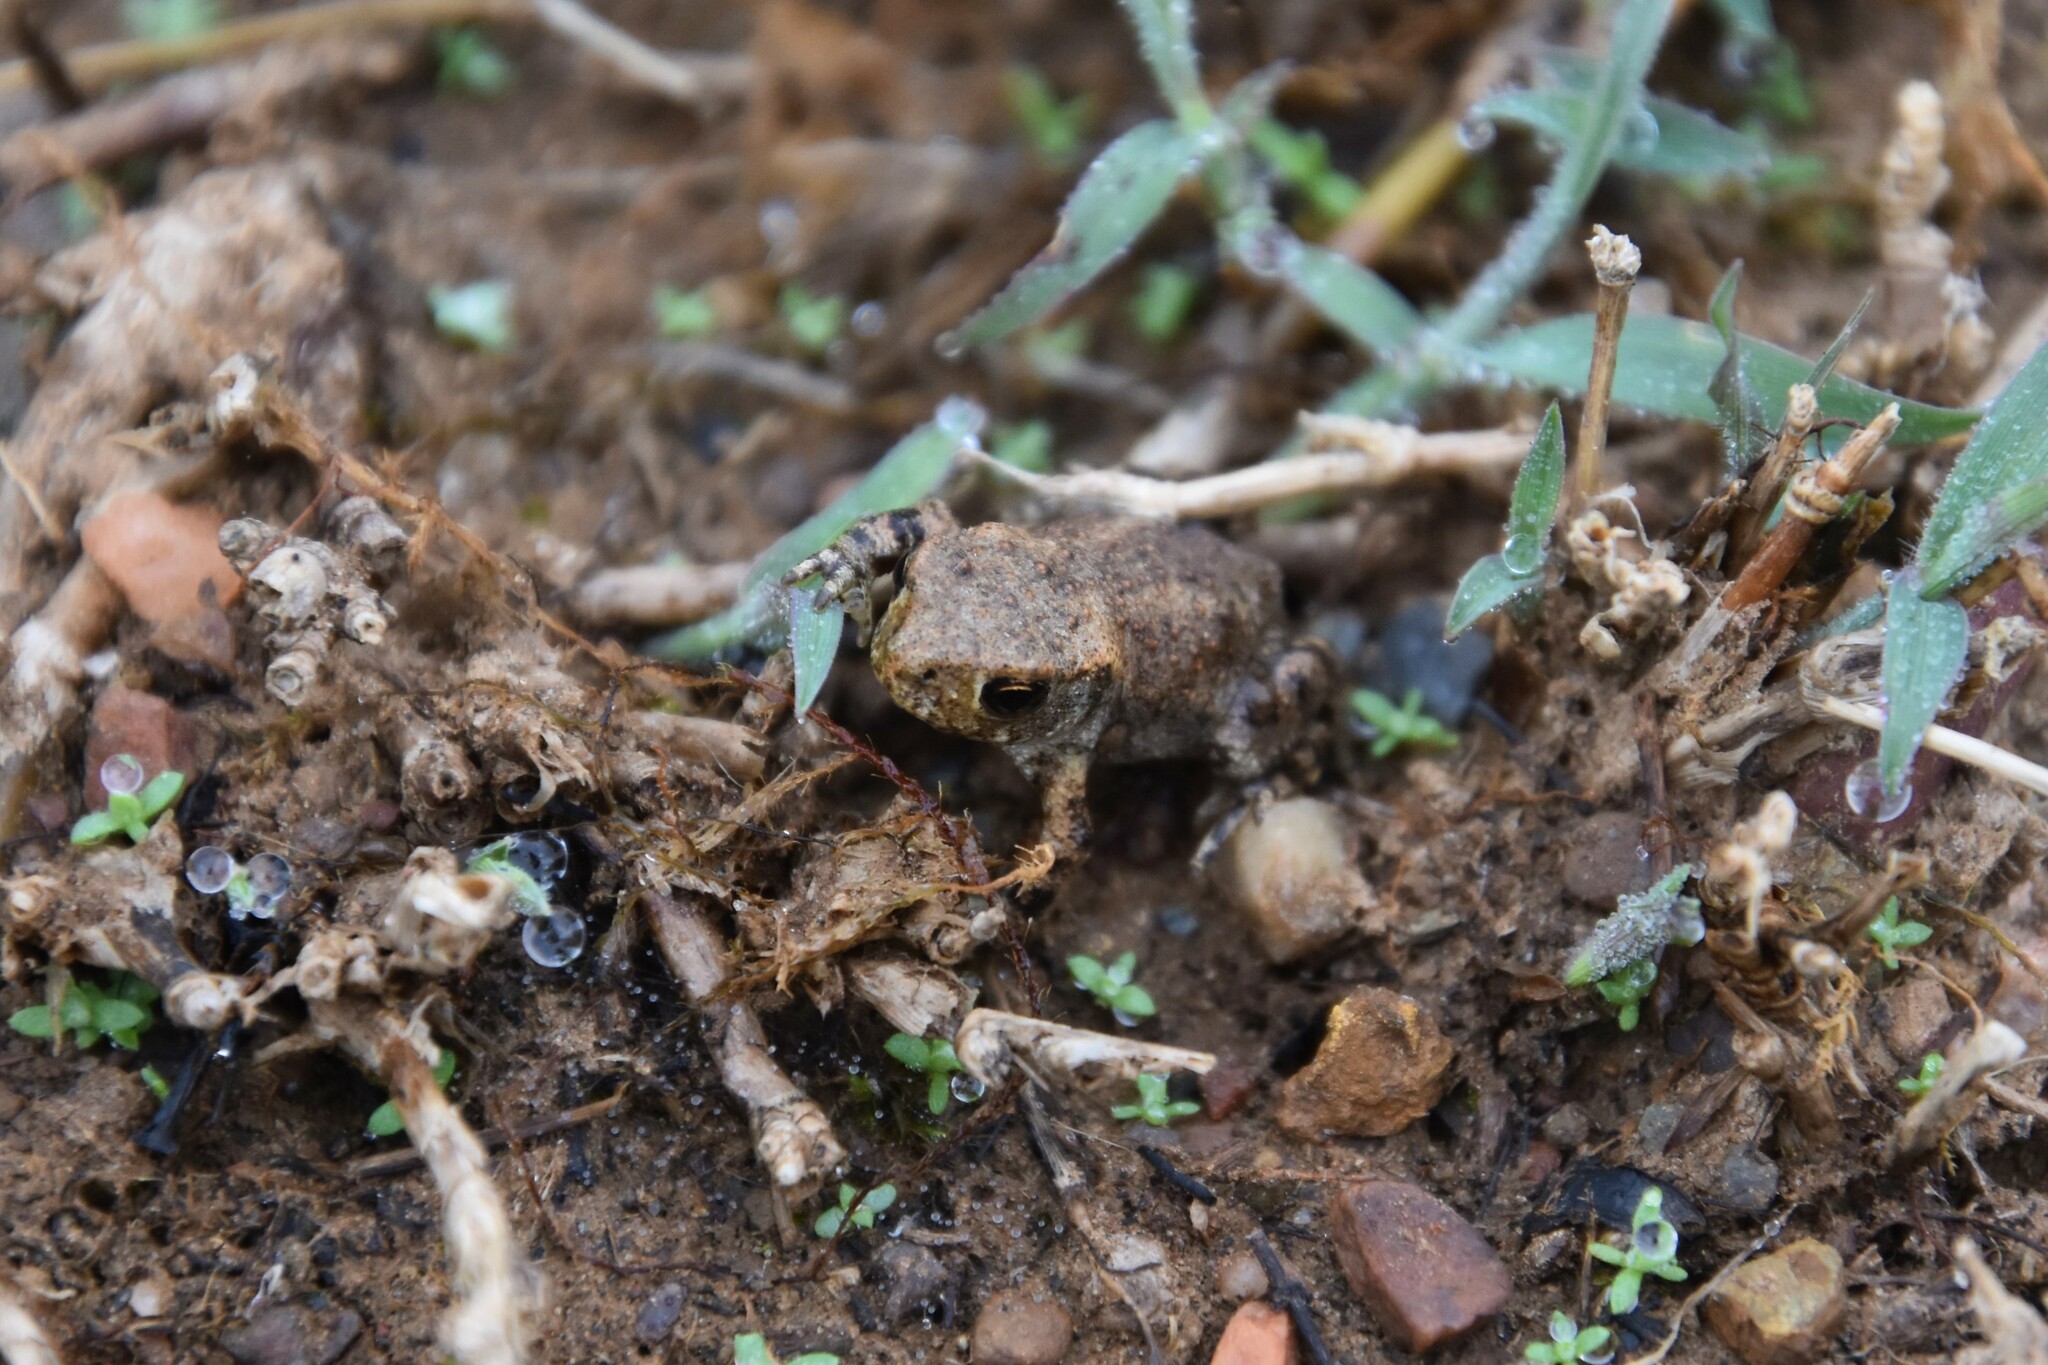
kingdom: Animalia
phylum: Chordata
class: Amphibia
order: Anura
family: Bufonidae
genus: Bufo
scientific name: Bufo spinosus
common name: Western common toad
